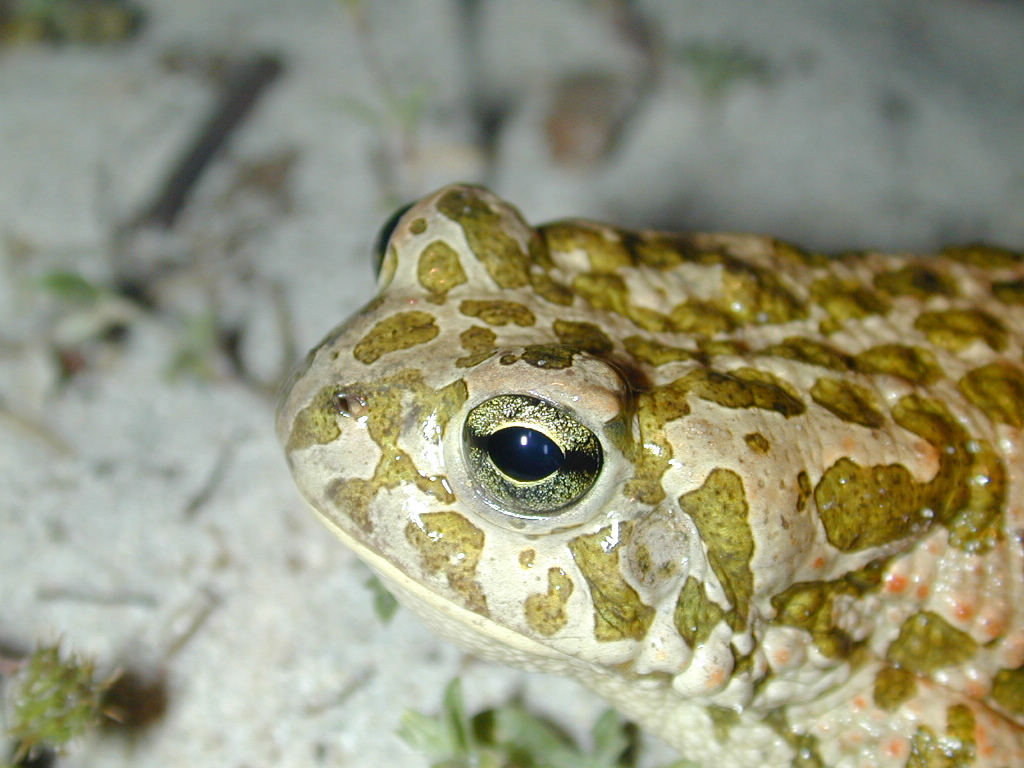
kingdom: Animalia
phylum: Chordata
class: Amphibia
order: Anura
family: Bufonidae
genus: Bufotes
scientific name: Bufotes viridis
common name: European green toad
